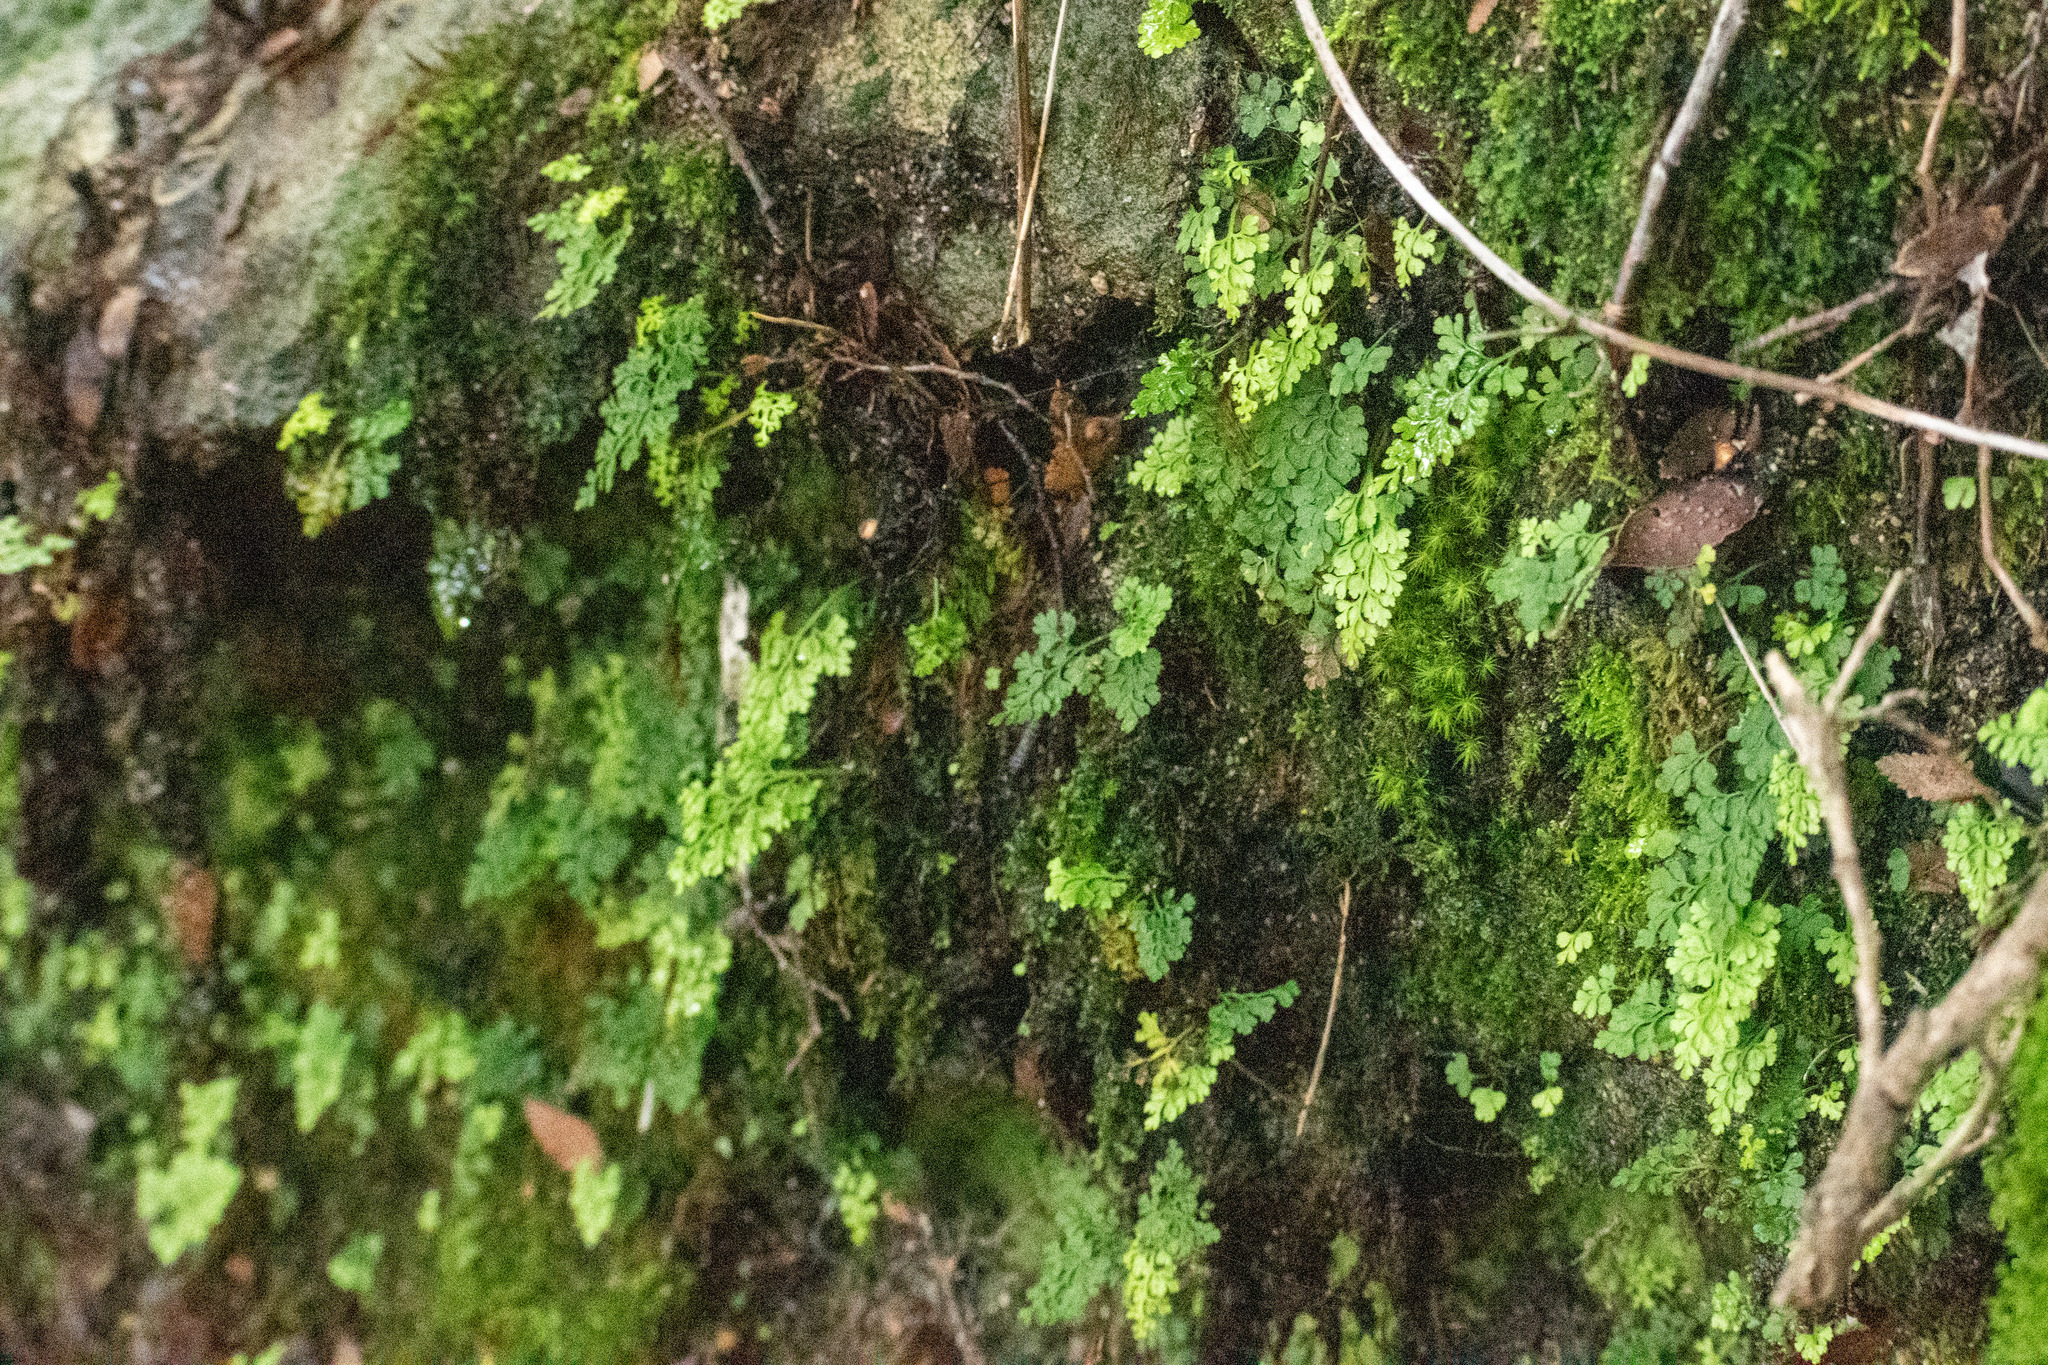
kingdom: Plantae
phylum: Tracheophyta
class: Polypodiopsida
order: Polypodiales
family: Aspleniaceae
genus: Asplenium
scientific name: Asplenium dareoides
